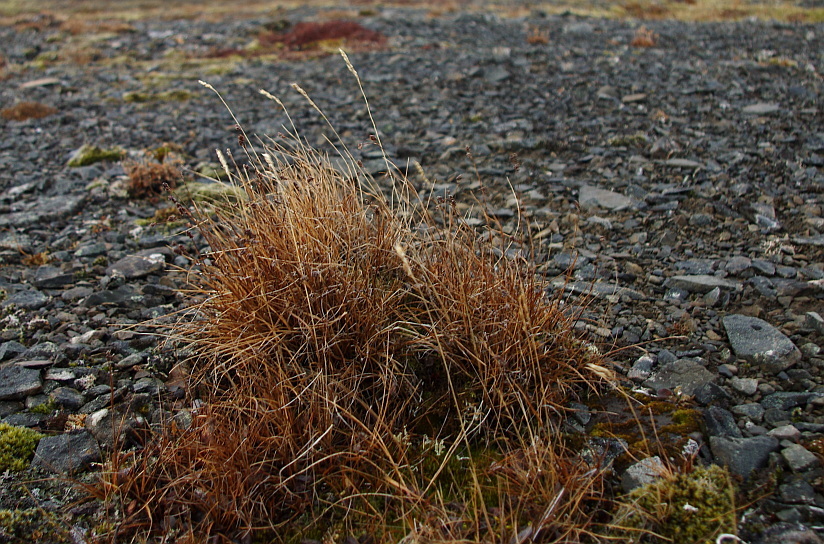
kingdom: Plantae
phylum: Tracheophyta
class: Liliopsida
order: Poales
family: Juncaceae
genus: Luzula
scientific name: Luzula confusa
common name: Northern wood rush
